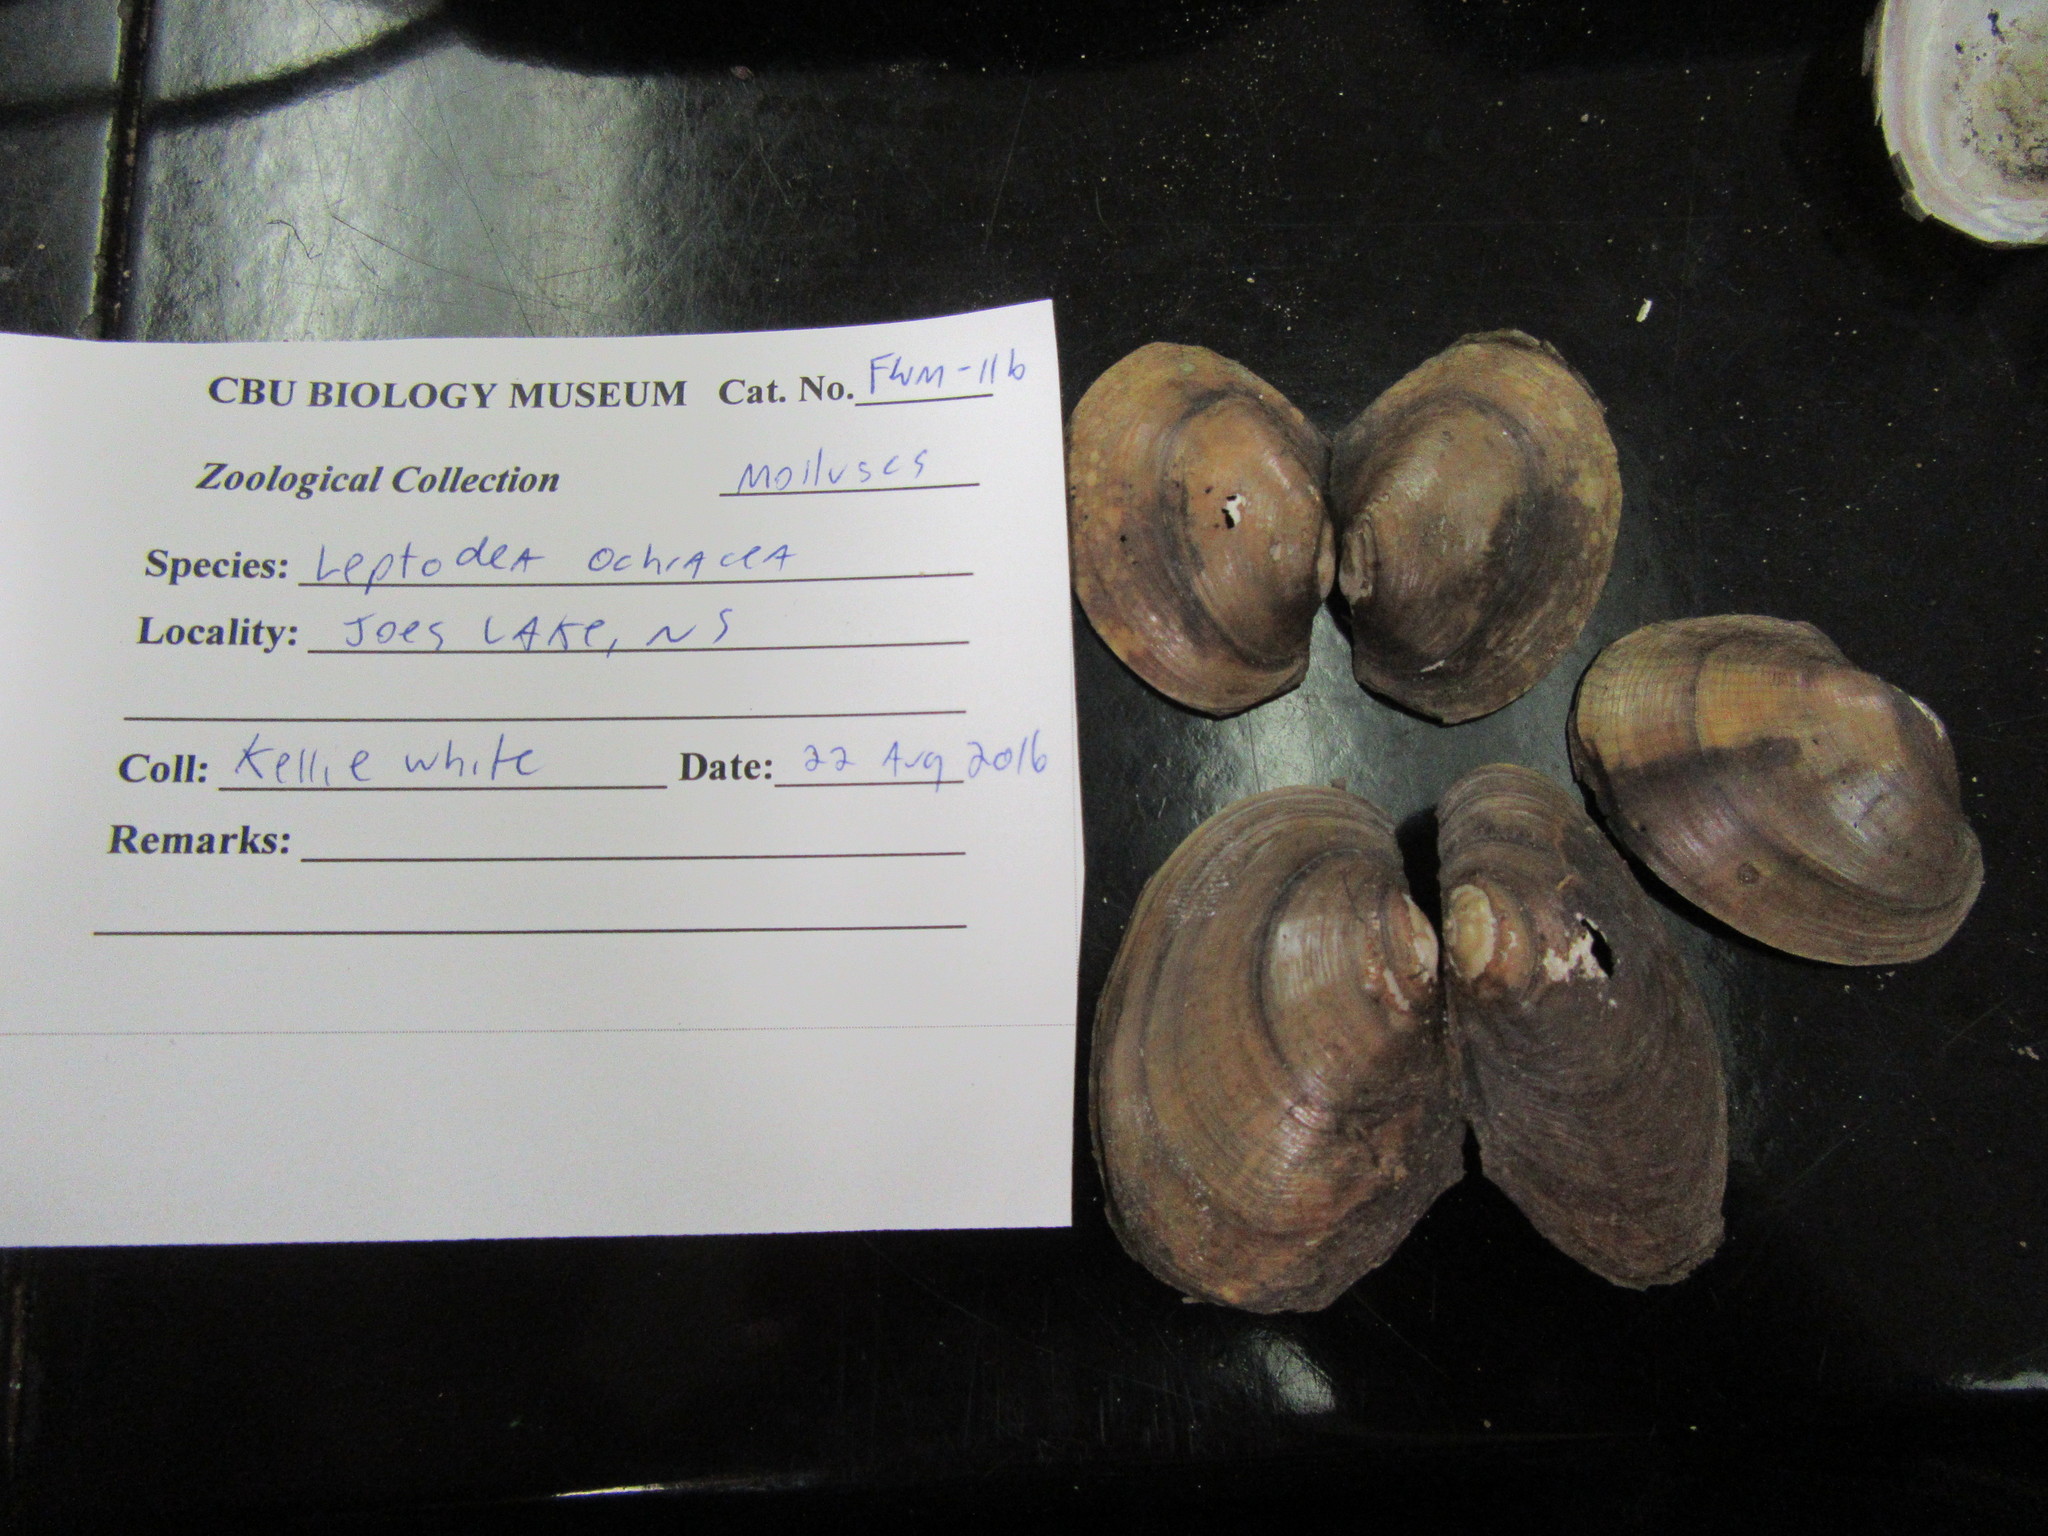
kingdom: Animalia
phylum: Mollusca
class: Bivalvia
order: Unionida
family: Unionidae
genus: Atlanticoncha
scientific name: Atlanticoncha ochracea
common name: Tidewater mucket
